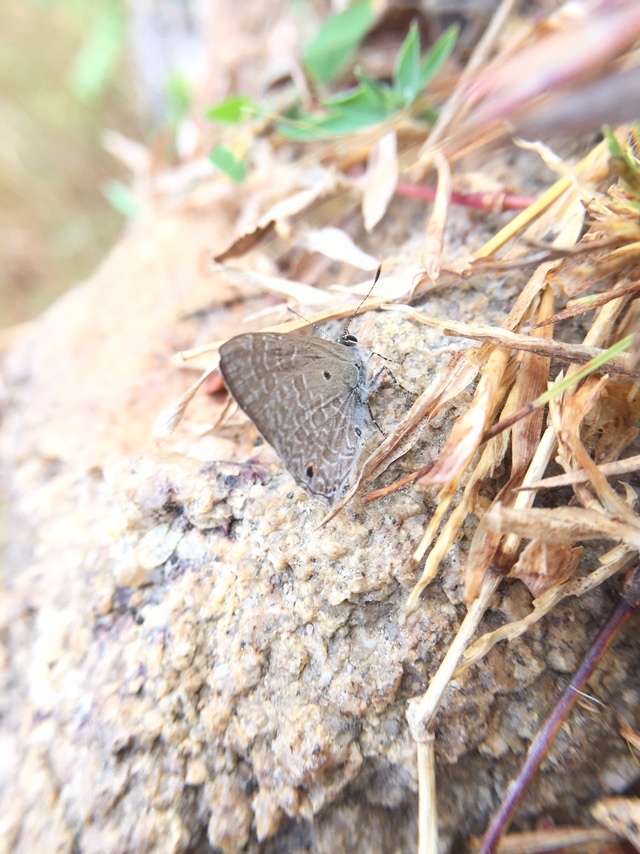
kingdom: Animalia
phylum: Arthropoda
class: Insecta
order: Lepidoptera
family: Lycaenidae
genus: Anthene
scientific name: Anthene lycaenina
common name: Pointed ciliate blue
